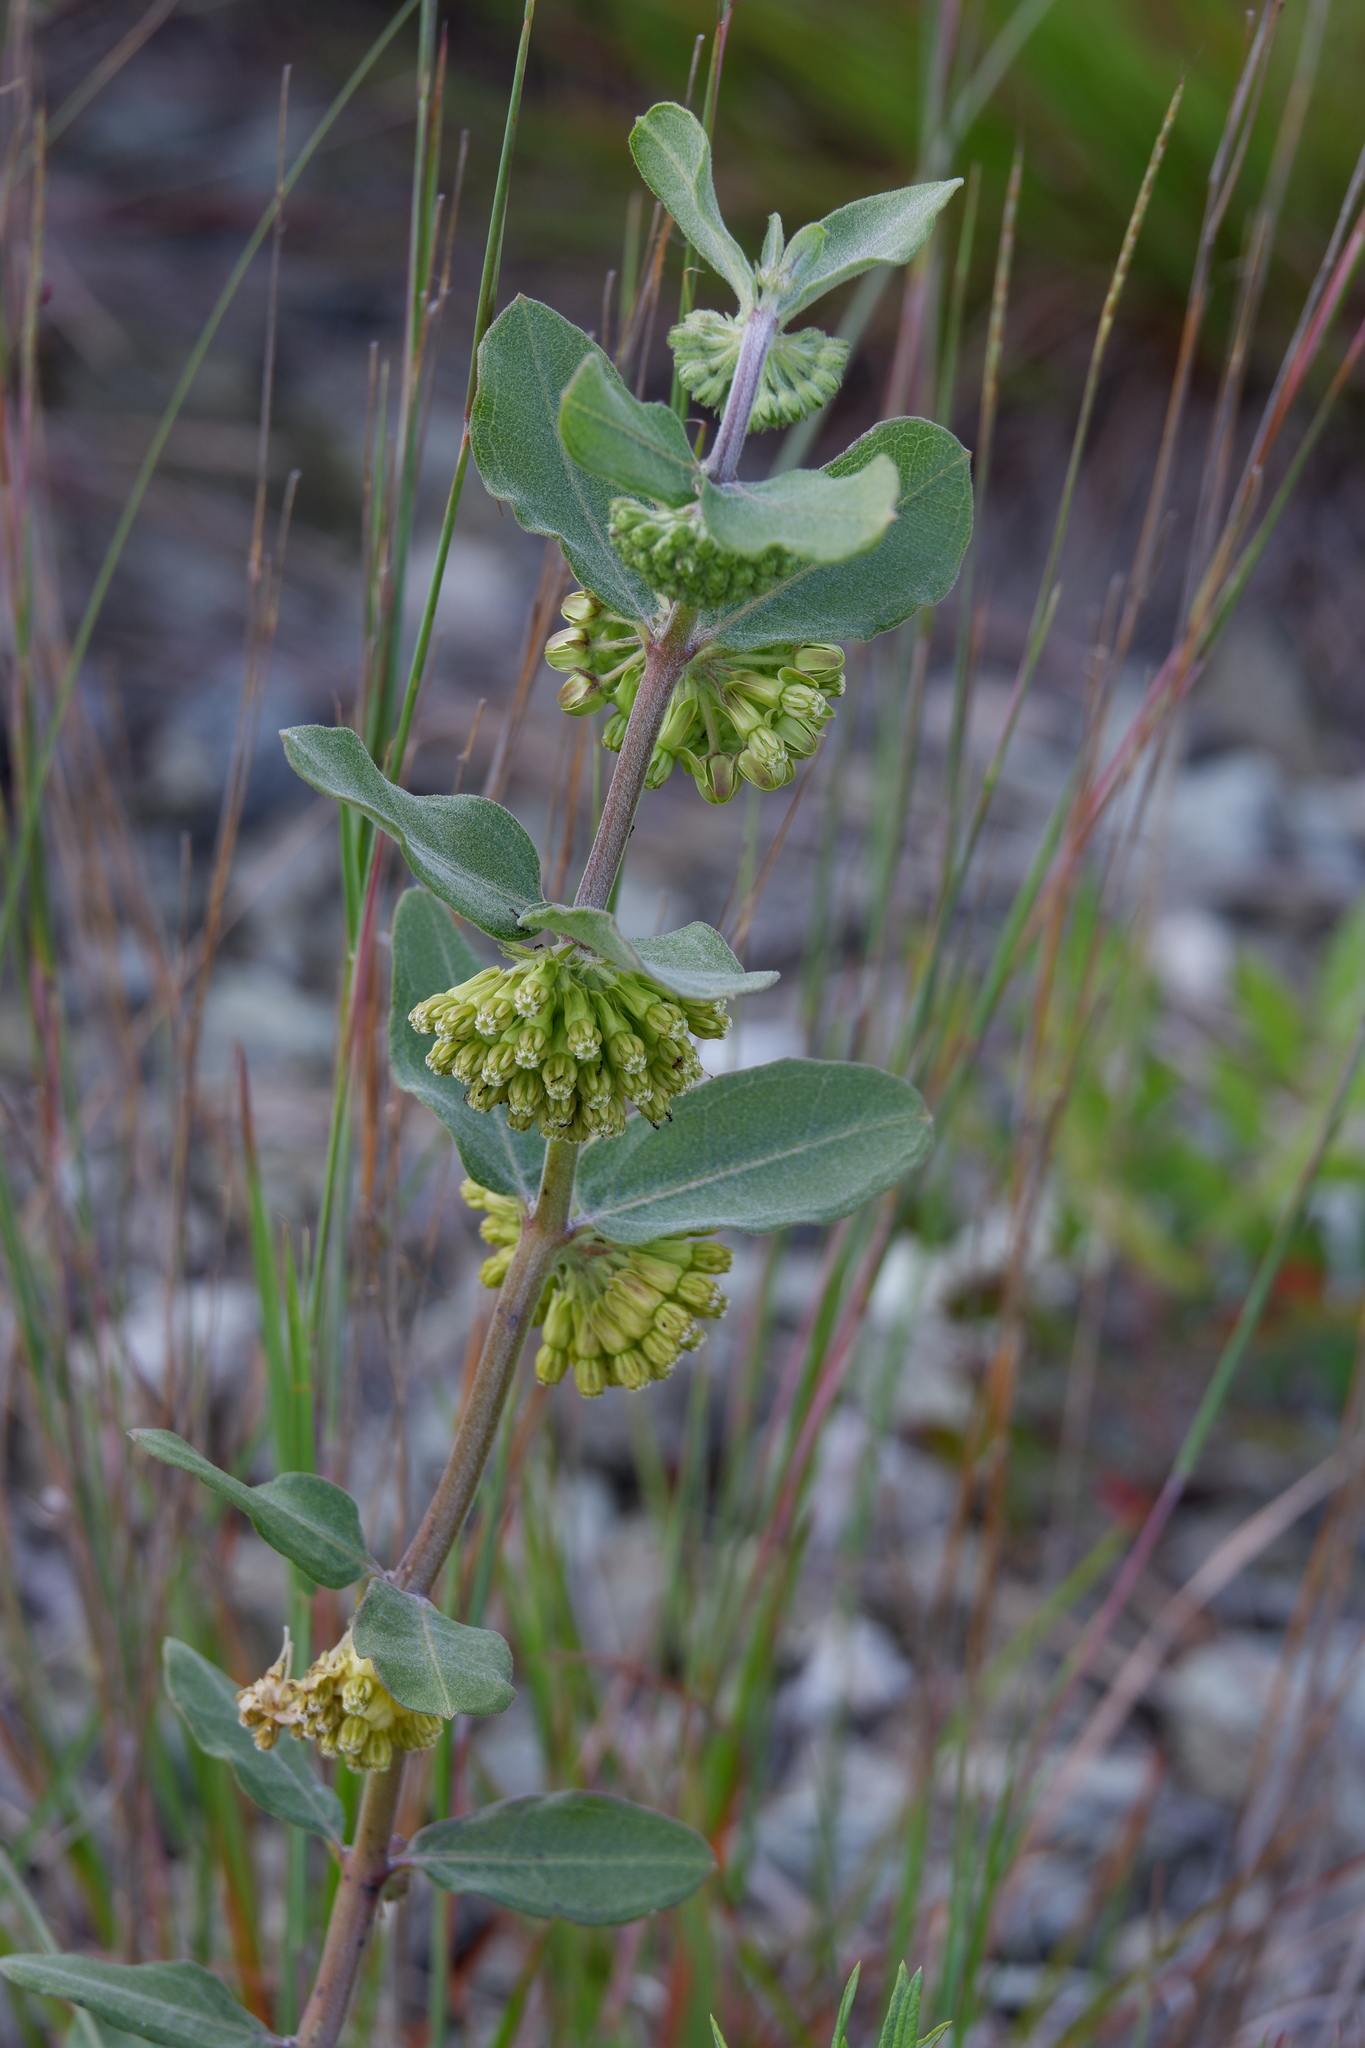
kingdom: Plantae
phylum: Tracheophyta
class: Magnoliopsida
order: Gentianales
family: Apocynaceae
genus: Asclepias
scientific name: Asclepias viridiflora
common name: Green comet milkweed
